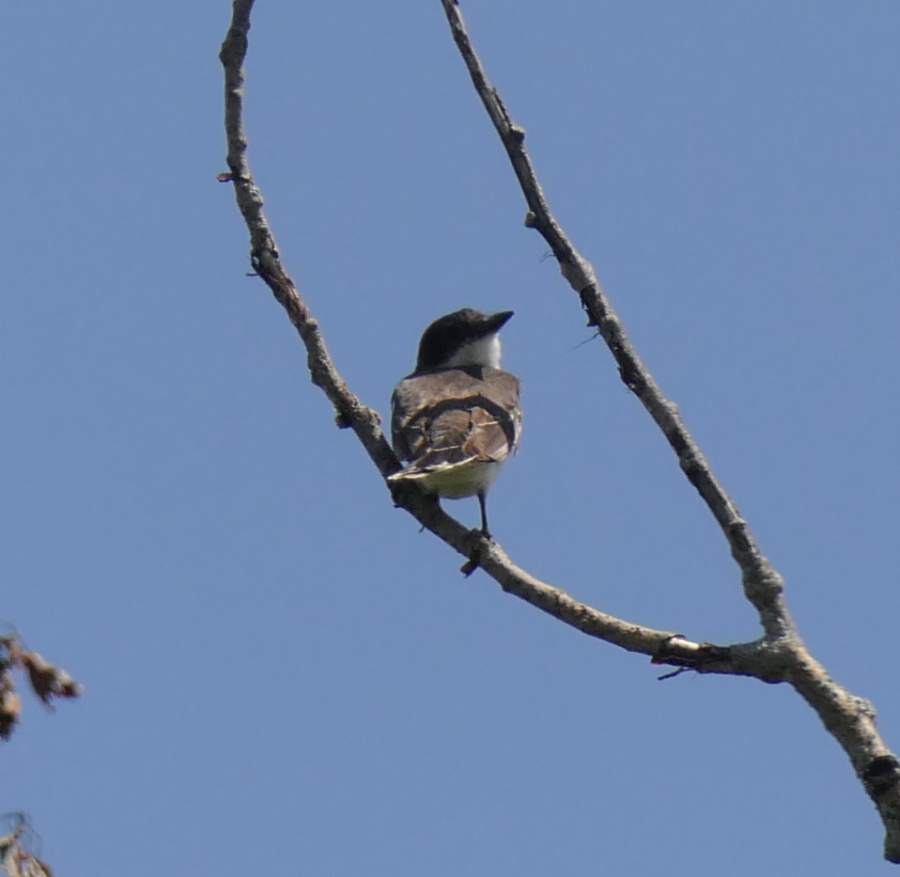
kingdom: Animalia
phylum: Chordata
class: Aves
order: Passeriformes
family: Tyrannidae
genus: Tyrannus
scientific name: Tyrannus tyrannus
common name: Eastern kingbird
